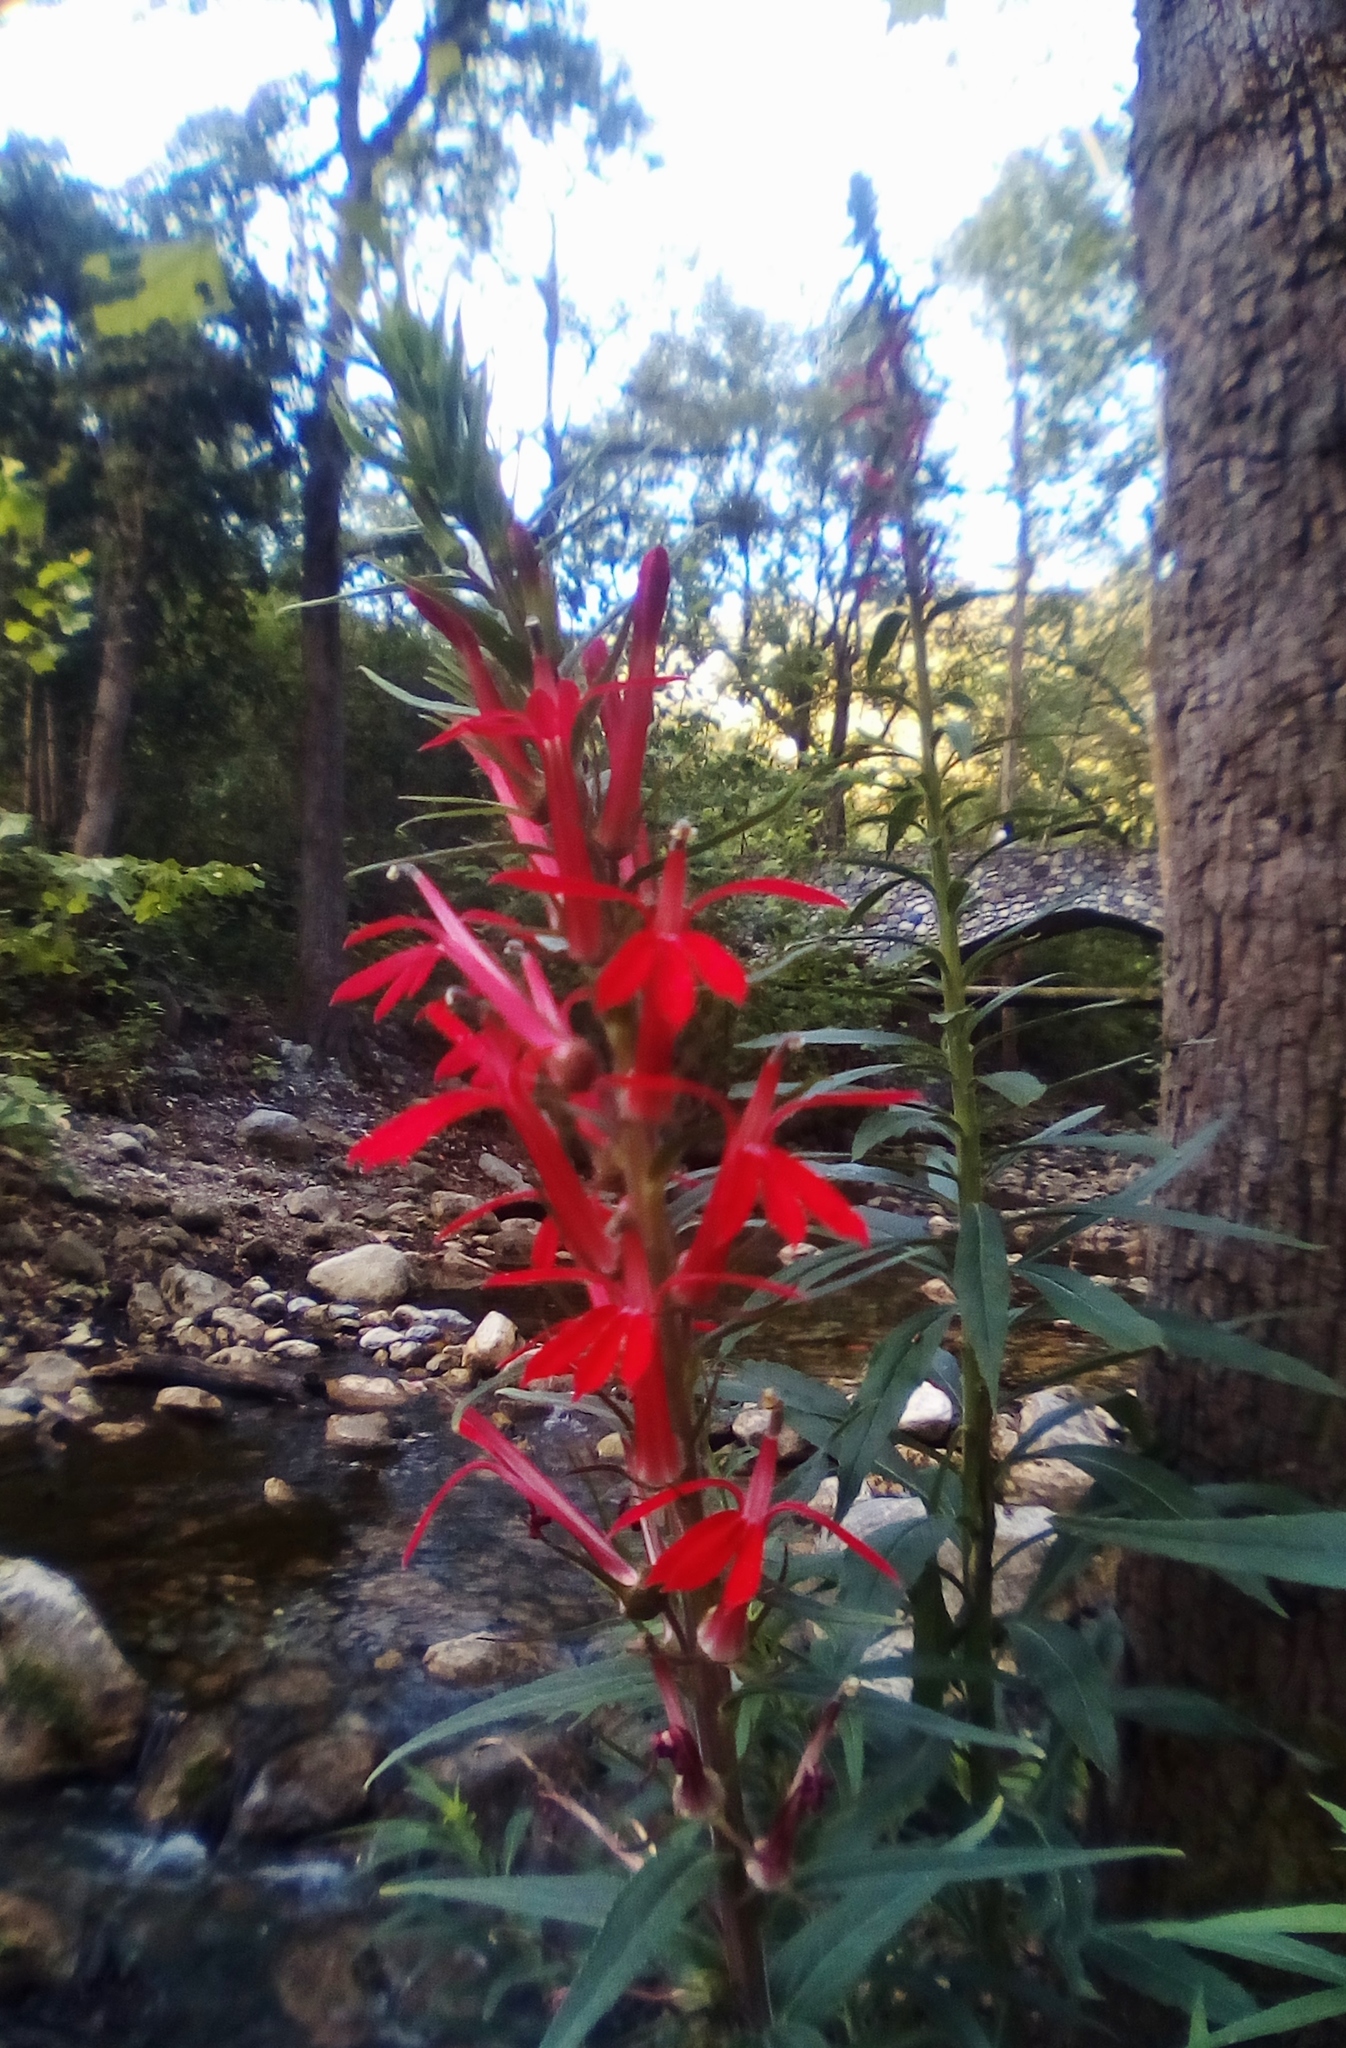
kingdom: Plantae
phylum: Tracheophyta
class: Magnoliopsida
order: Asterales
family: Campanulaceae
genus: Lobelia
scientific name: Lobelia cardinalis
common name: Cardinal flower
